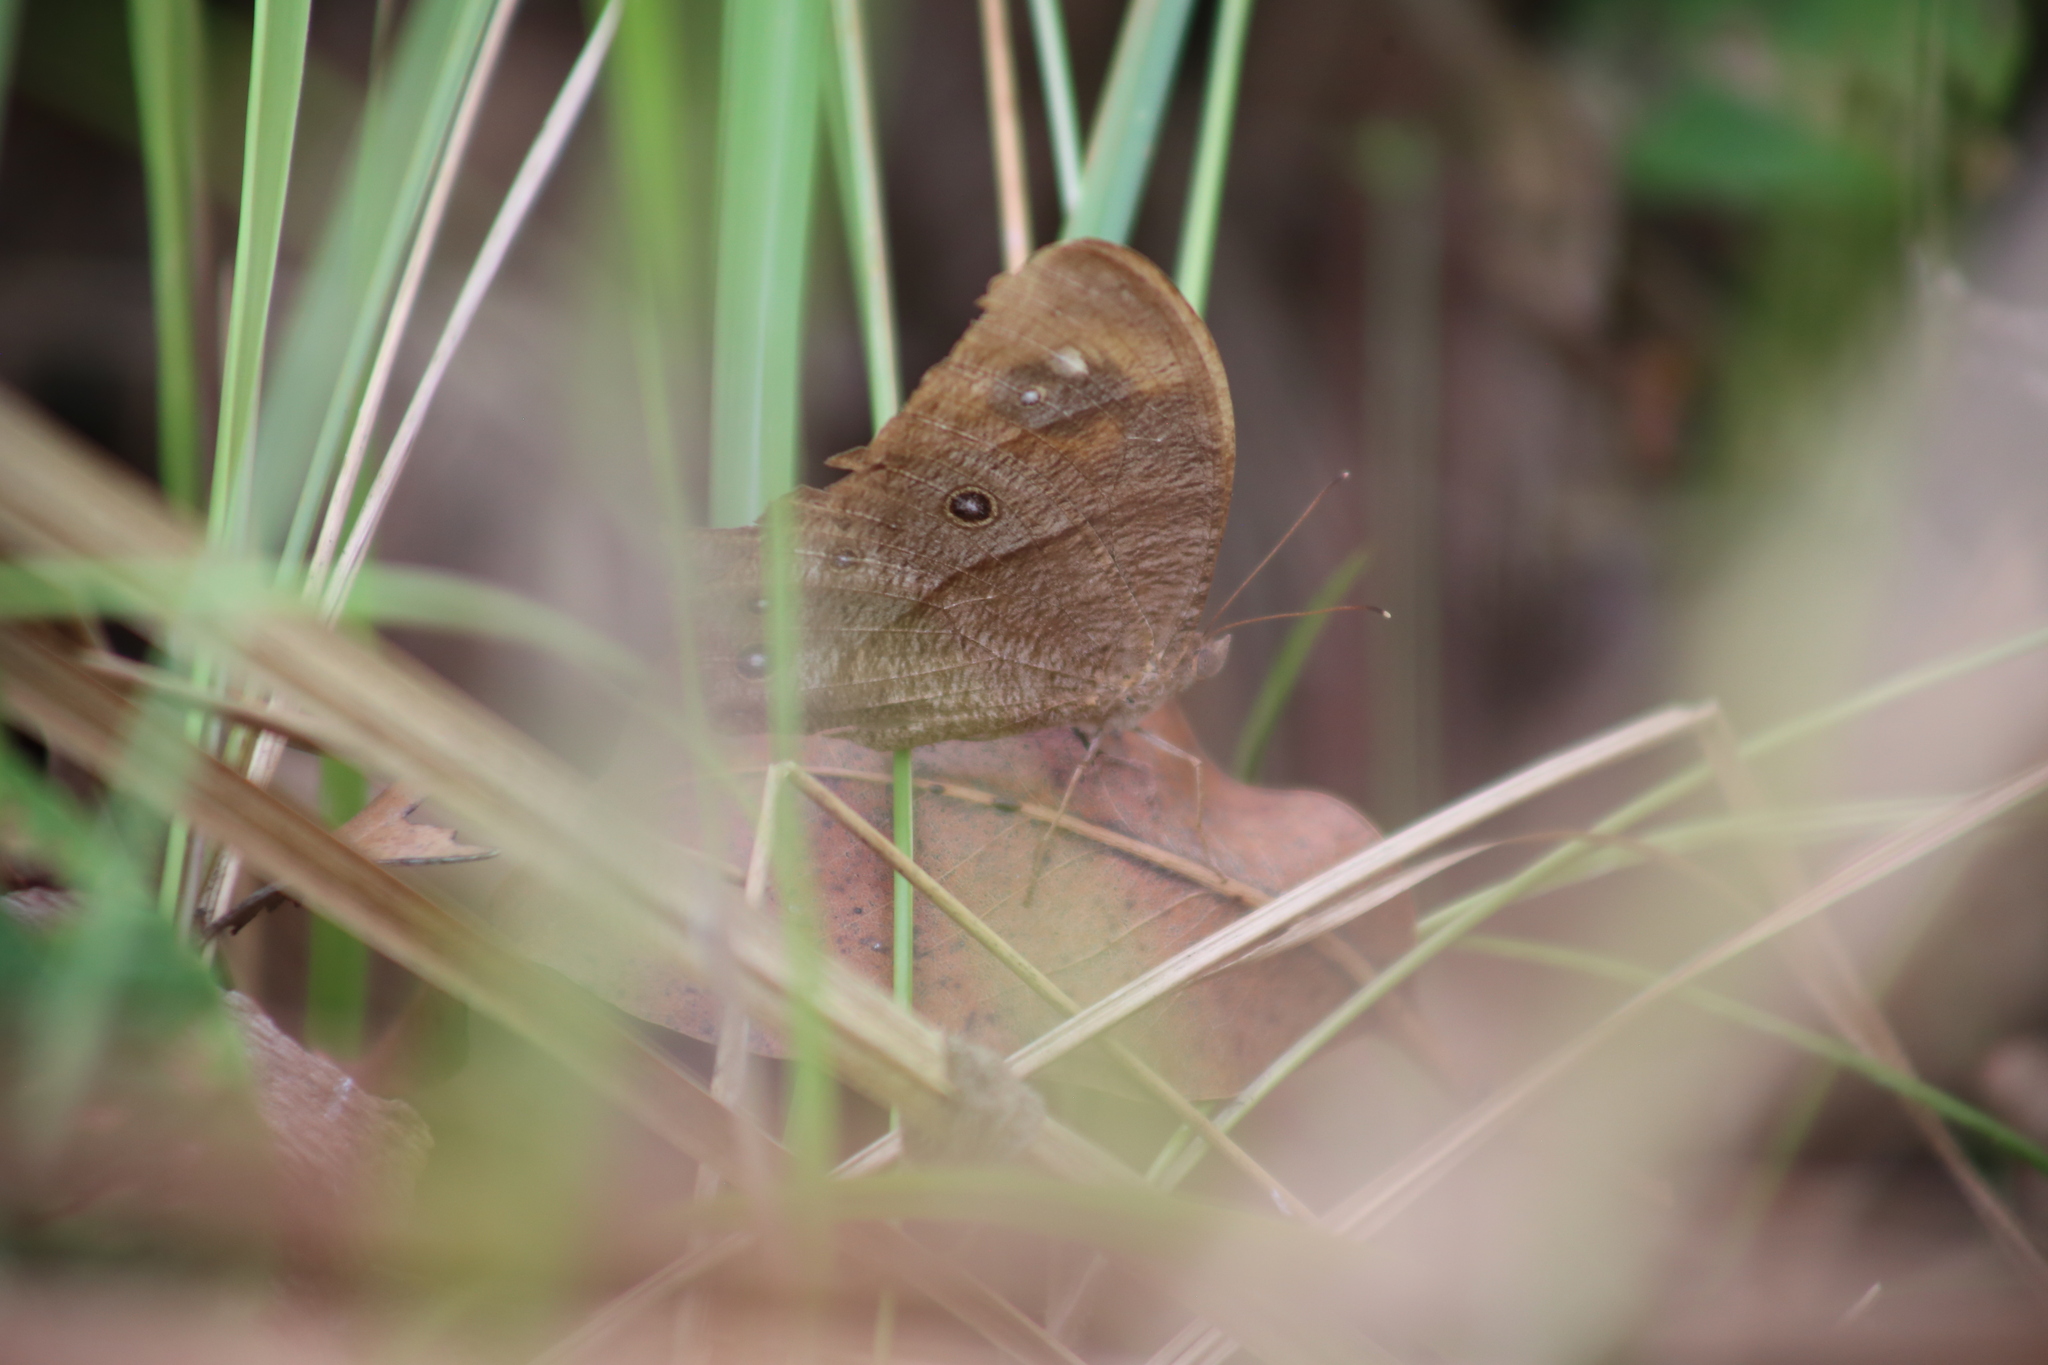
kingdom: Animalia
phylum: Arthropoda
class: Insecta
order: Lepidoptera
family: Nymphalidae
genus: Melanitis
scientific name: Melanitis leda
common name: Twilight brown
